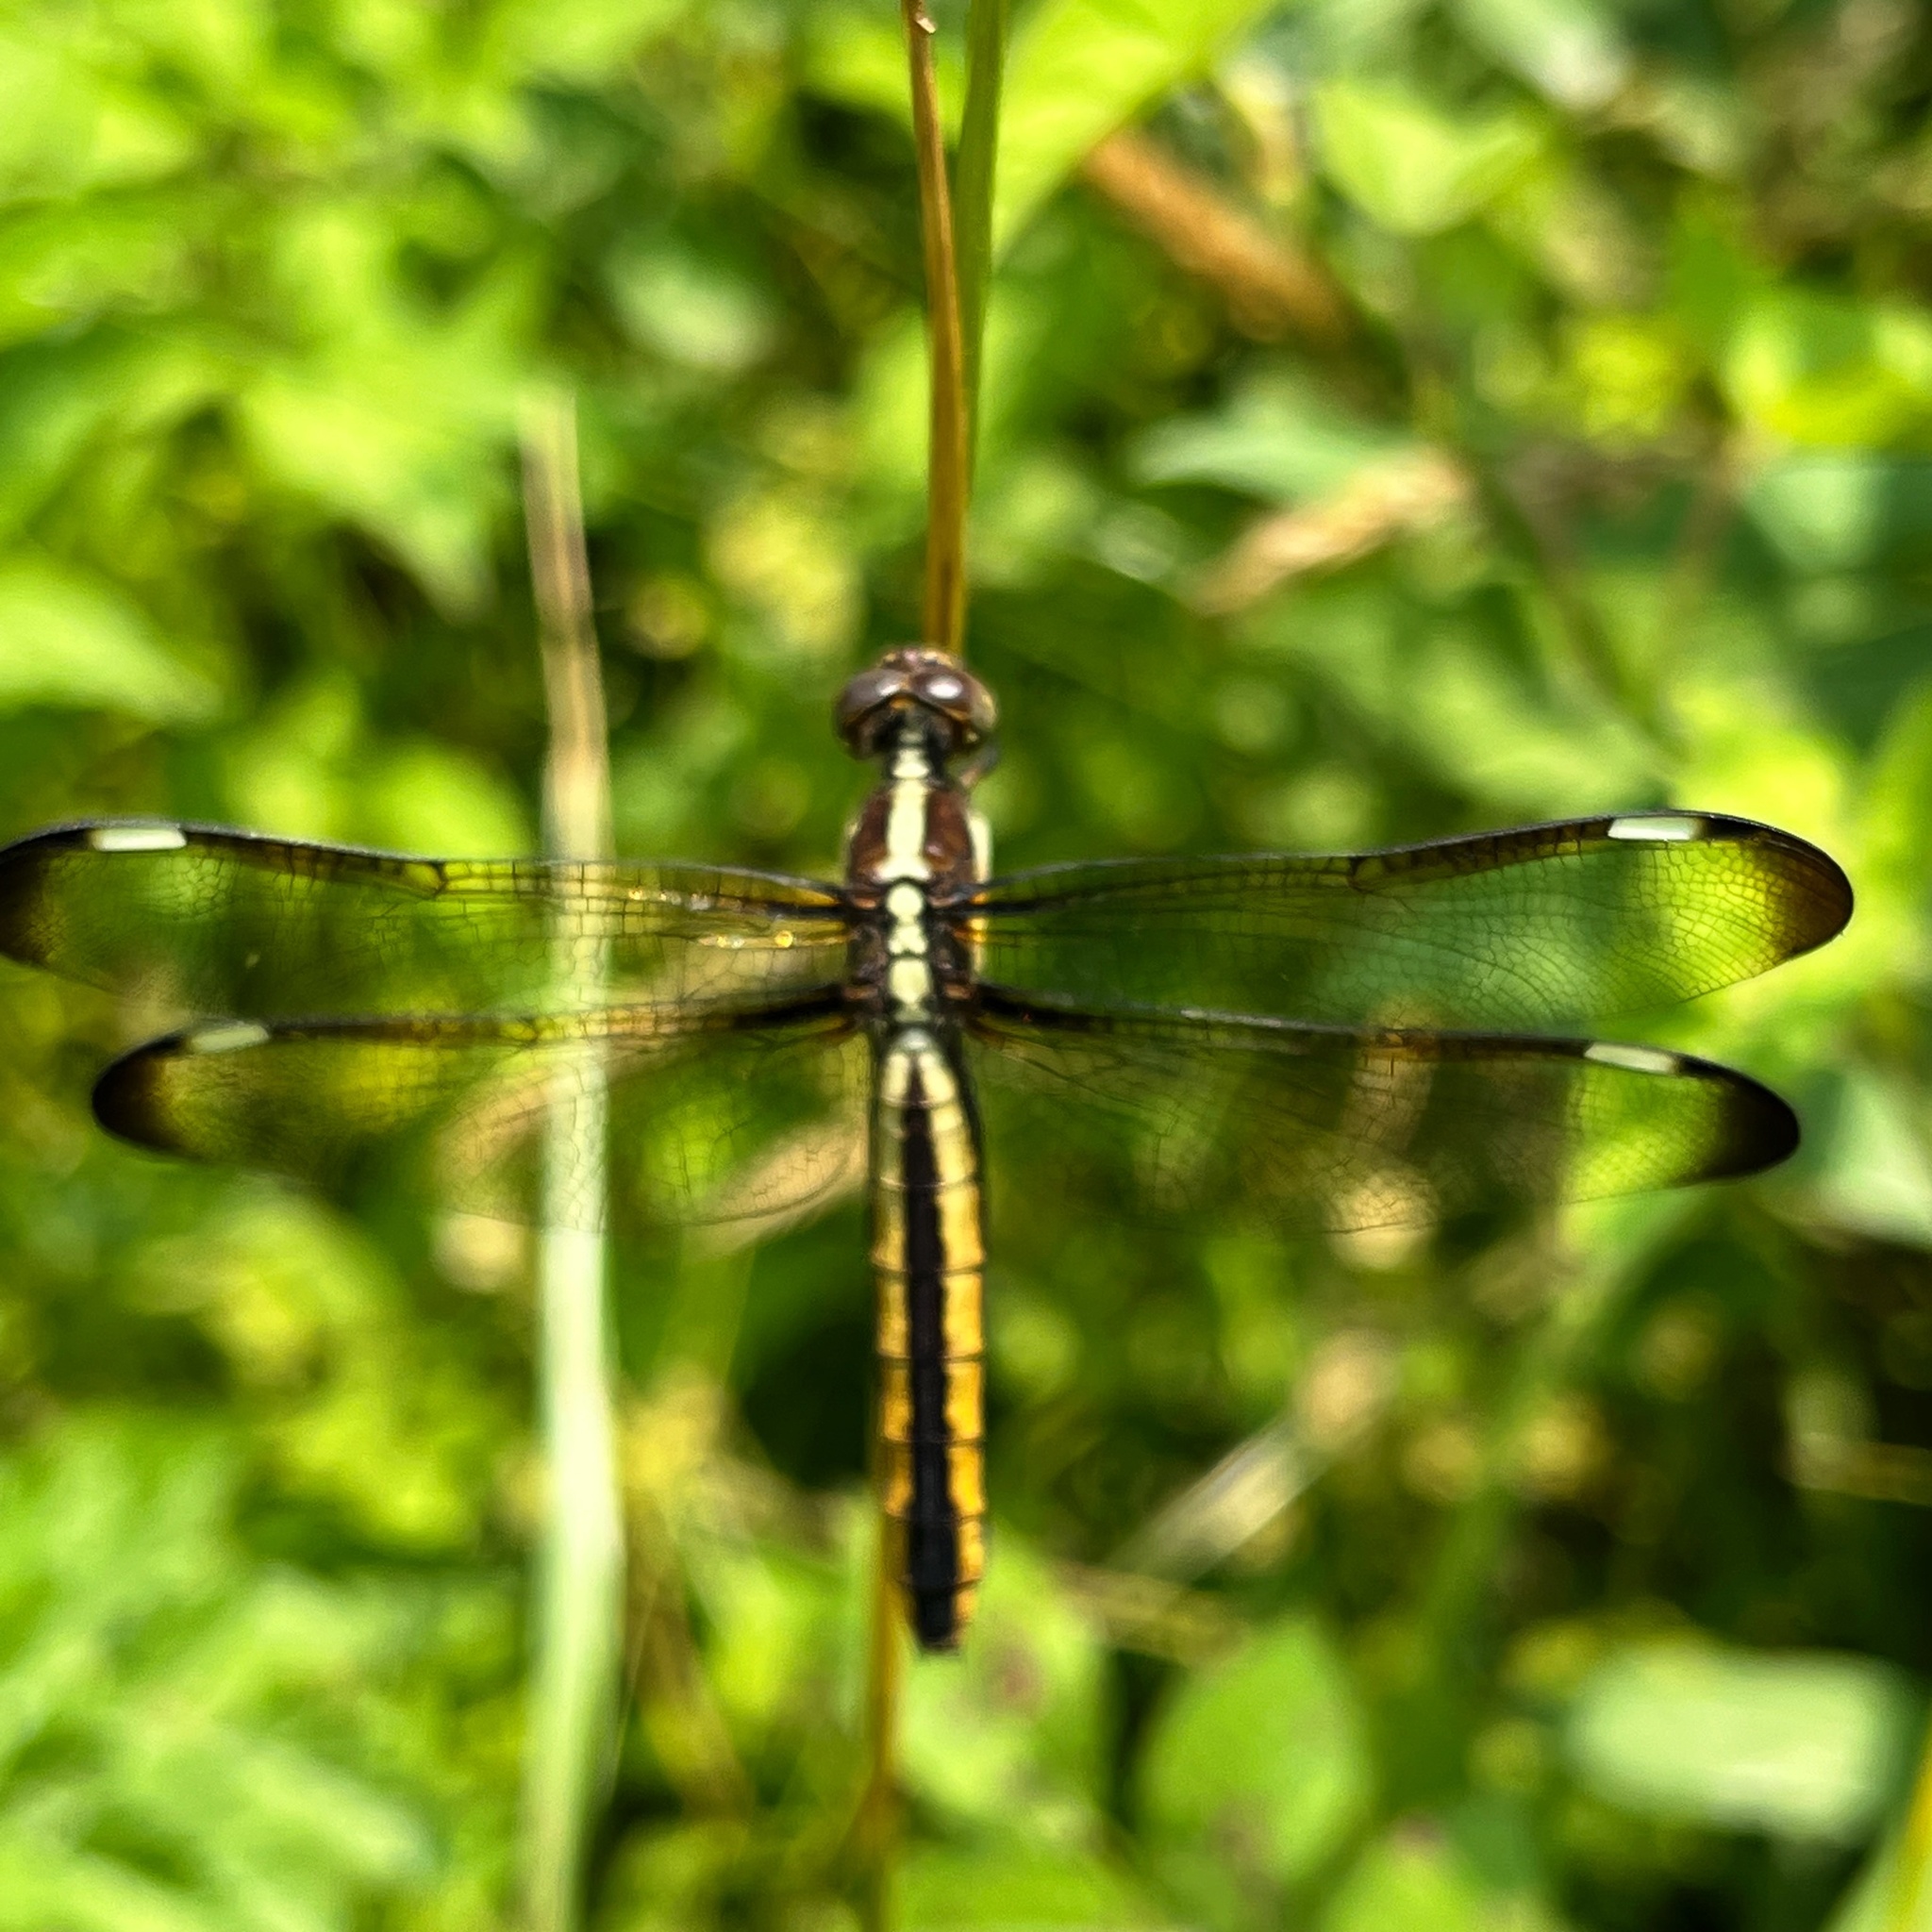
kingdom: Animalia
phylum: Arthropoda
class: Insecta
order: Odonata
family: Libellulidae
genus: Libellula
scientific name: Libellula cyanea
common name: Spangled skimmer
